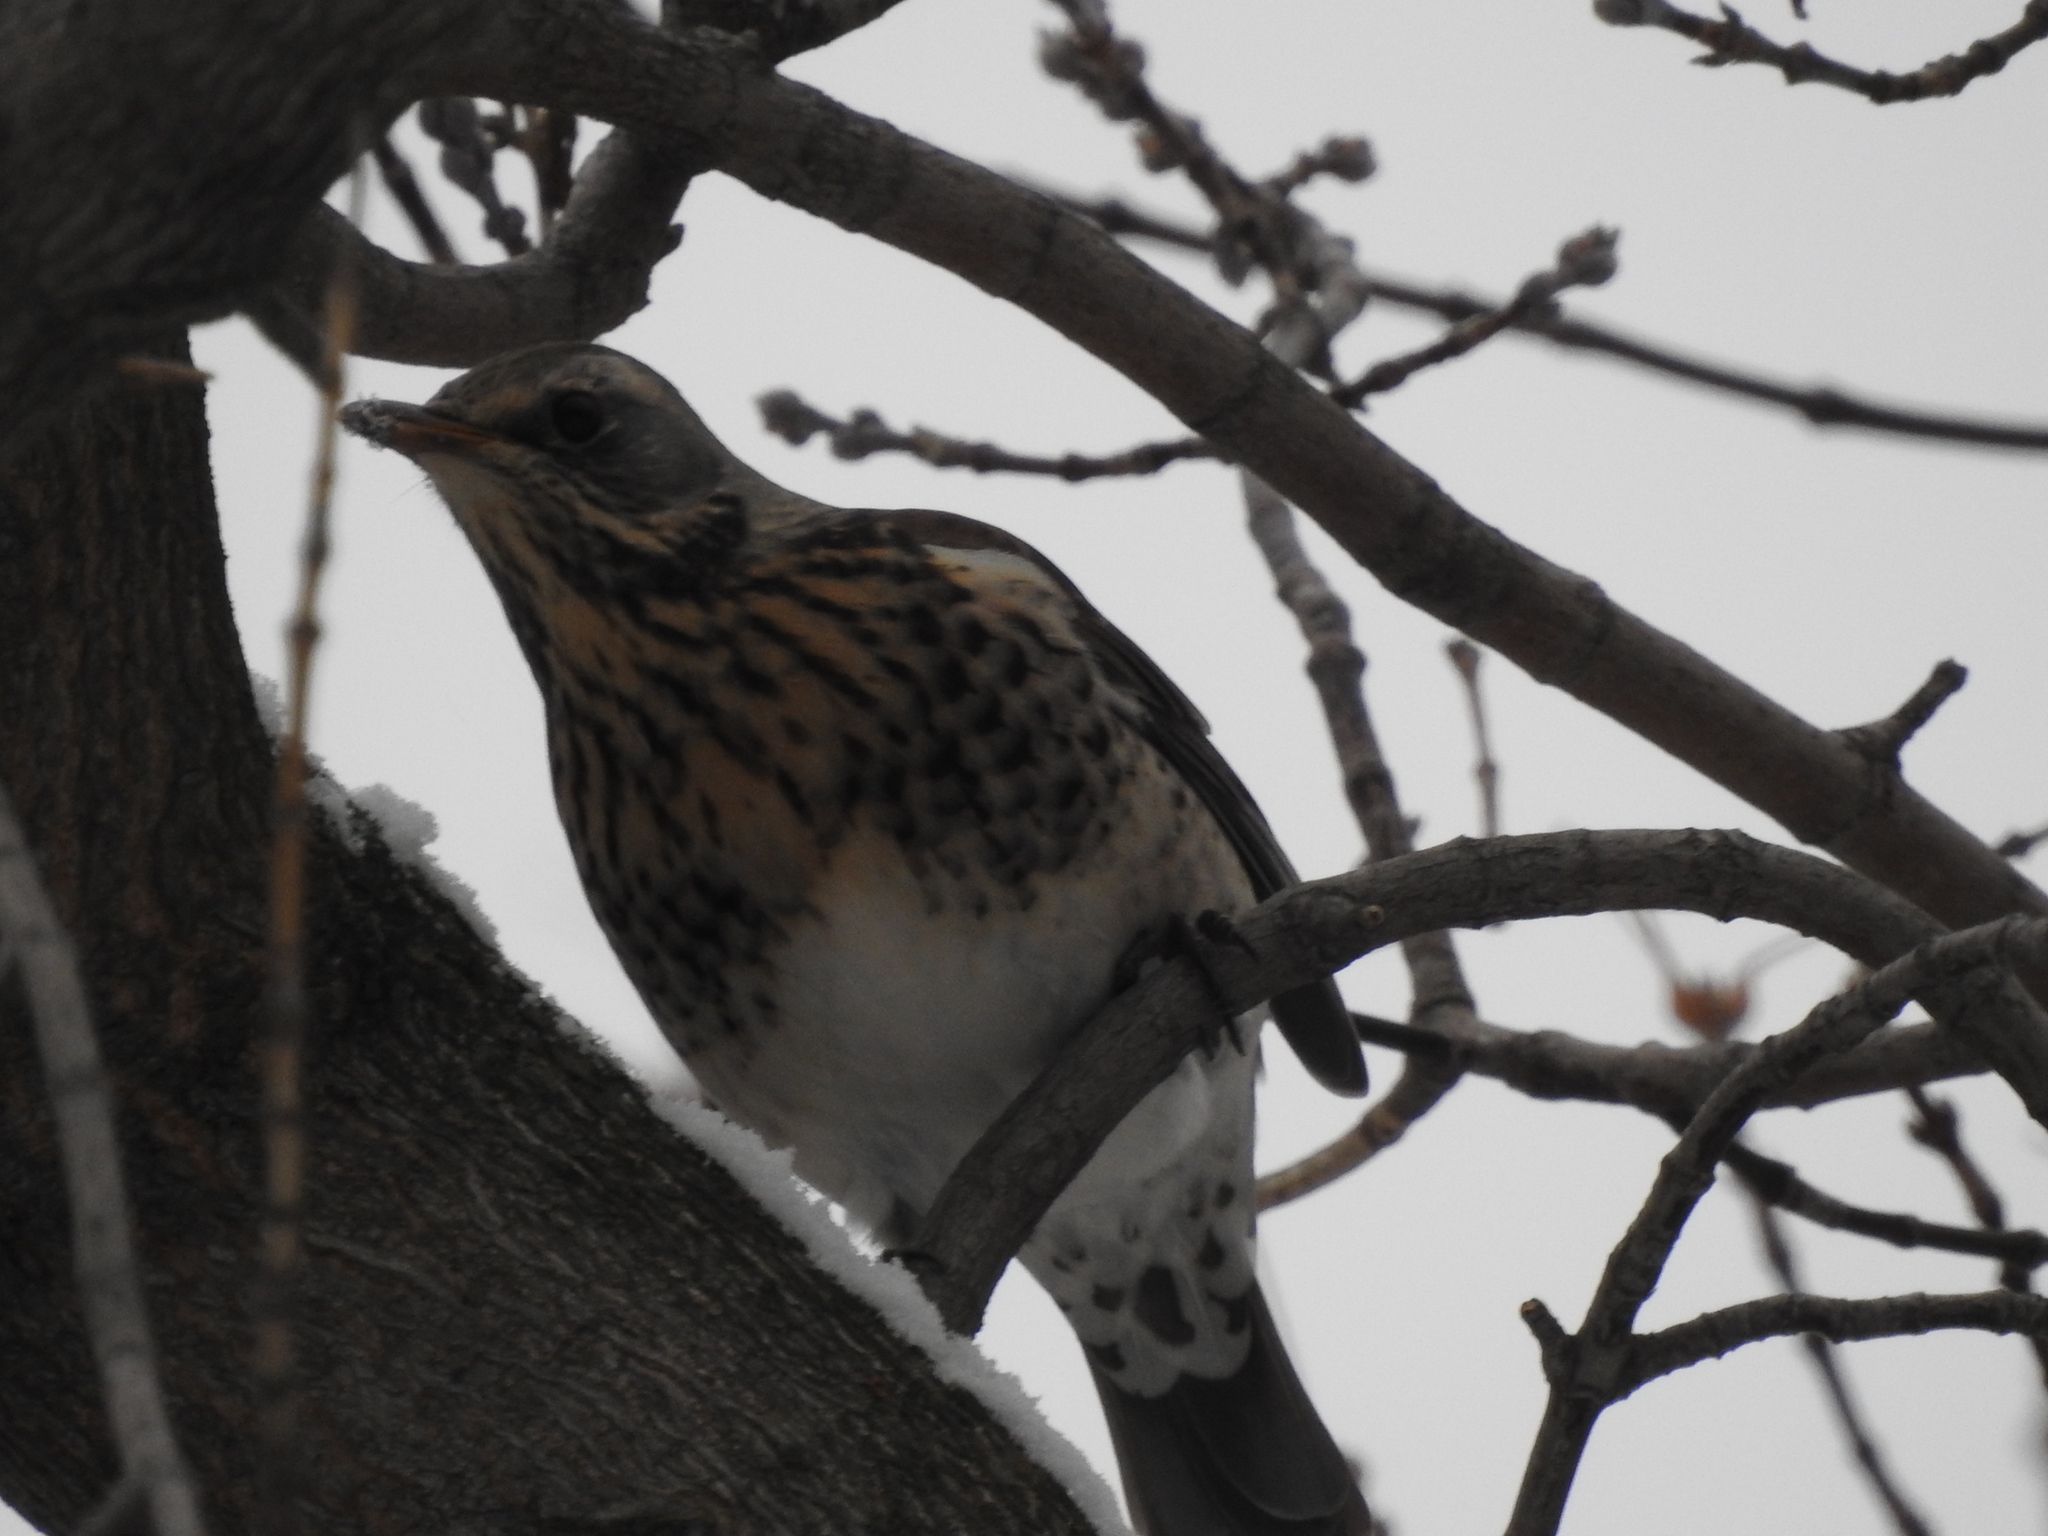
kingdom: Animalia
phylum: Chordata
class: Aves
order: Passeriformes
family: Turdidae
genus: Turdus
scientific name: Turdus pilaris
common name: Fieldfare
